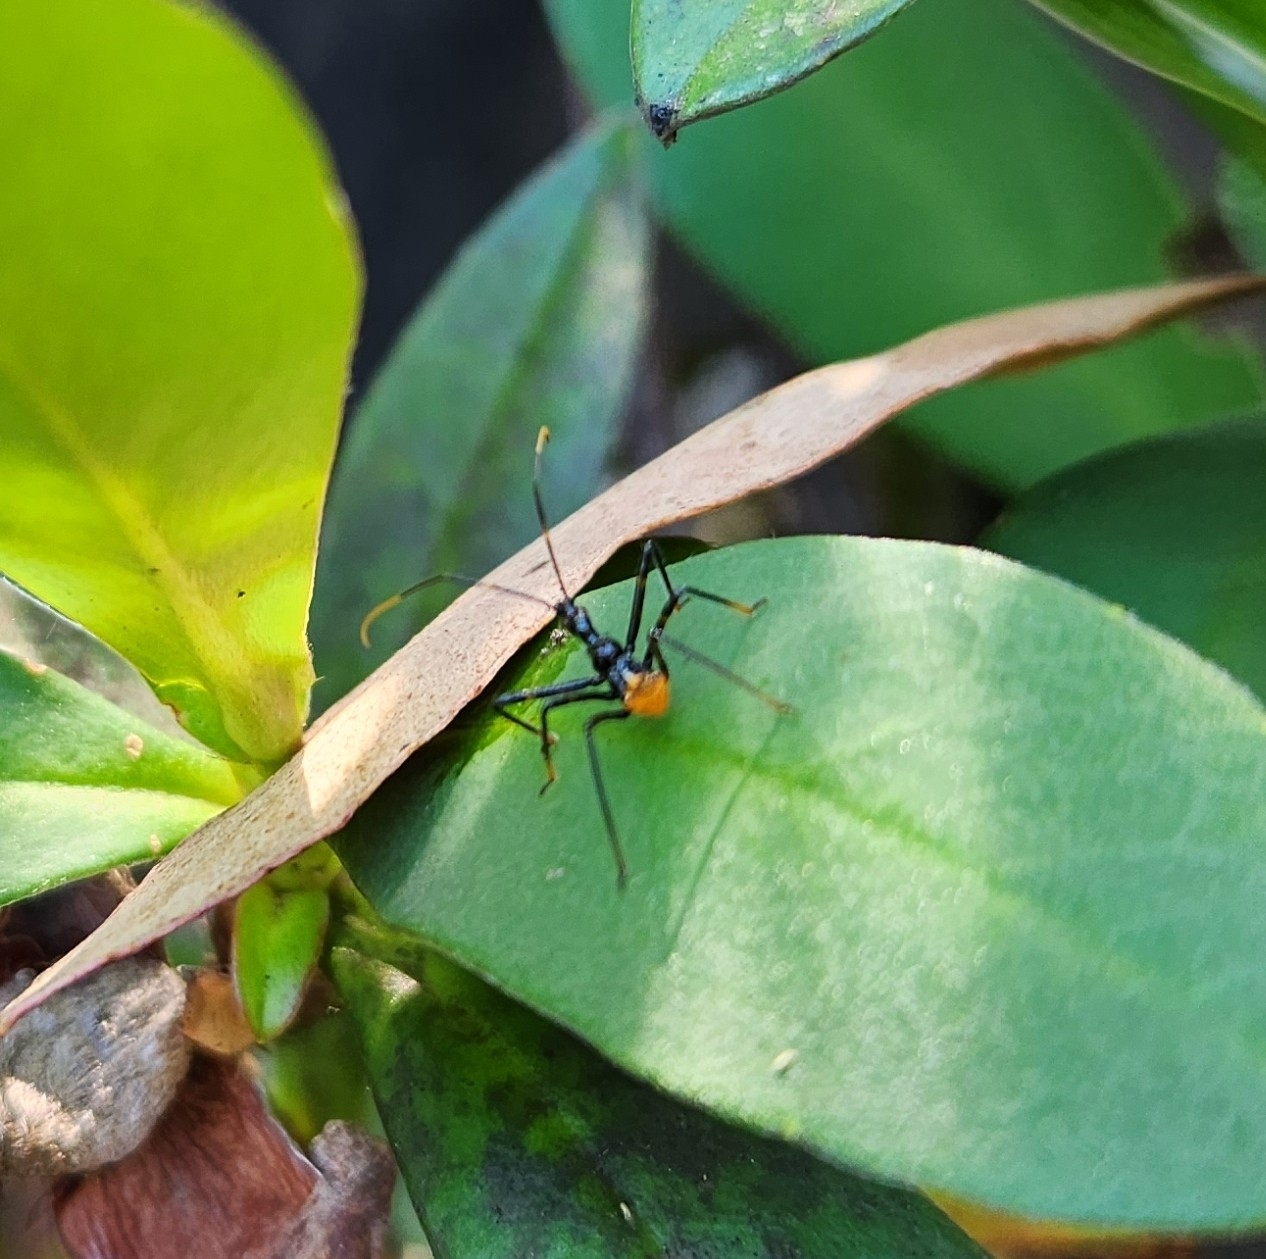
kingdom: Animalia
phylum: Arthropoda
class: Insecta
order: Hemiptera
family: Reduviidae
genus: Pristhesancus
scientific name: Pristhesancus plagipennis
